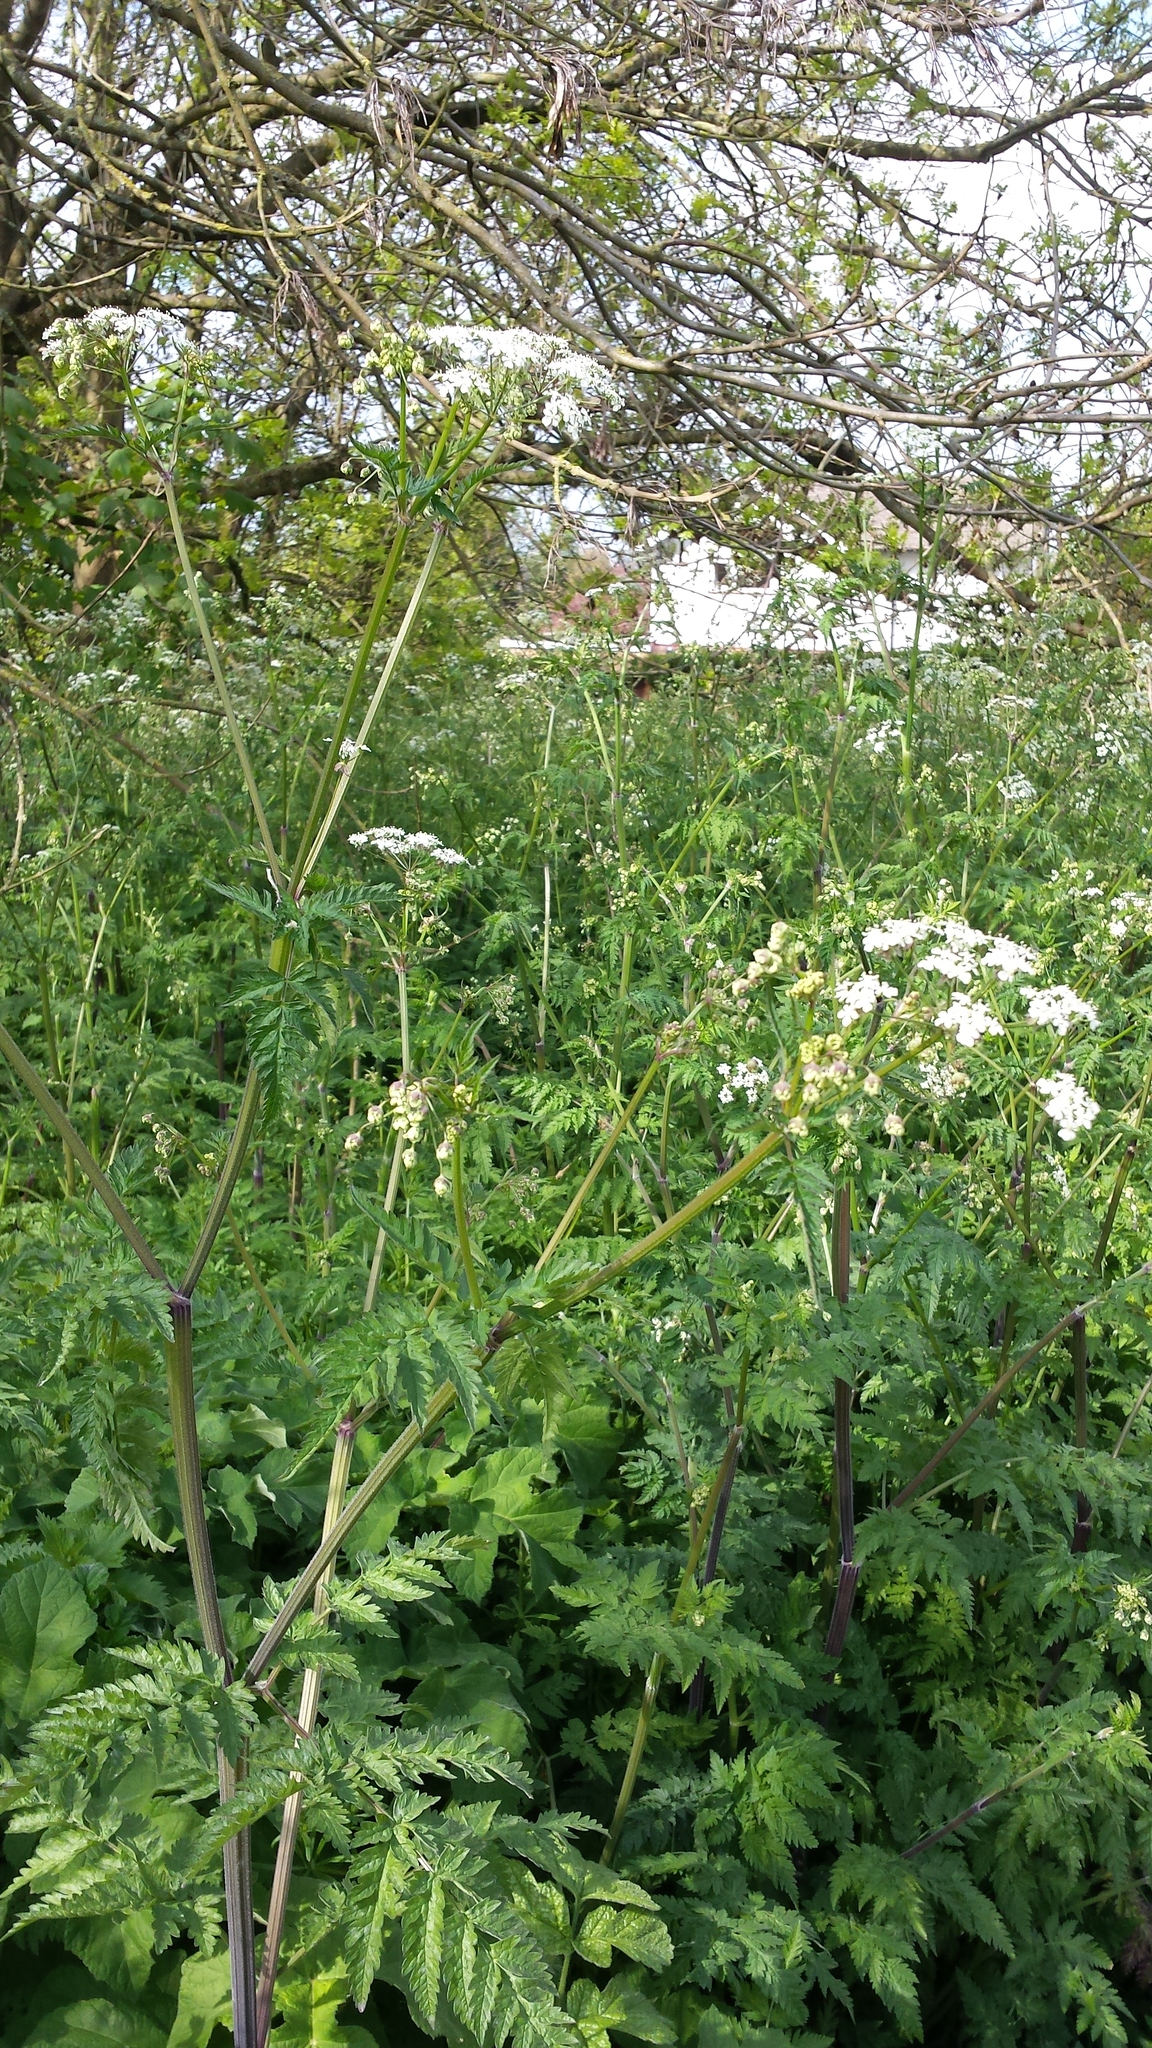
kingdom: Plantae
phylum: Tracheophyta
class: Magnoliopsida
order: Apiales
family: Apiaceae
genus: Anthriscus
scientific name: Anthriscus sylvestris
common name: Cow parsley
